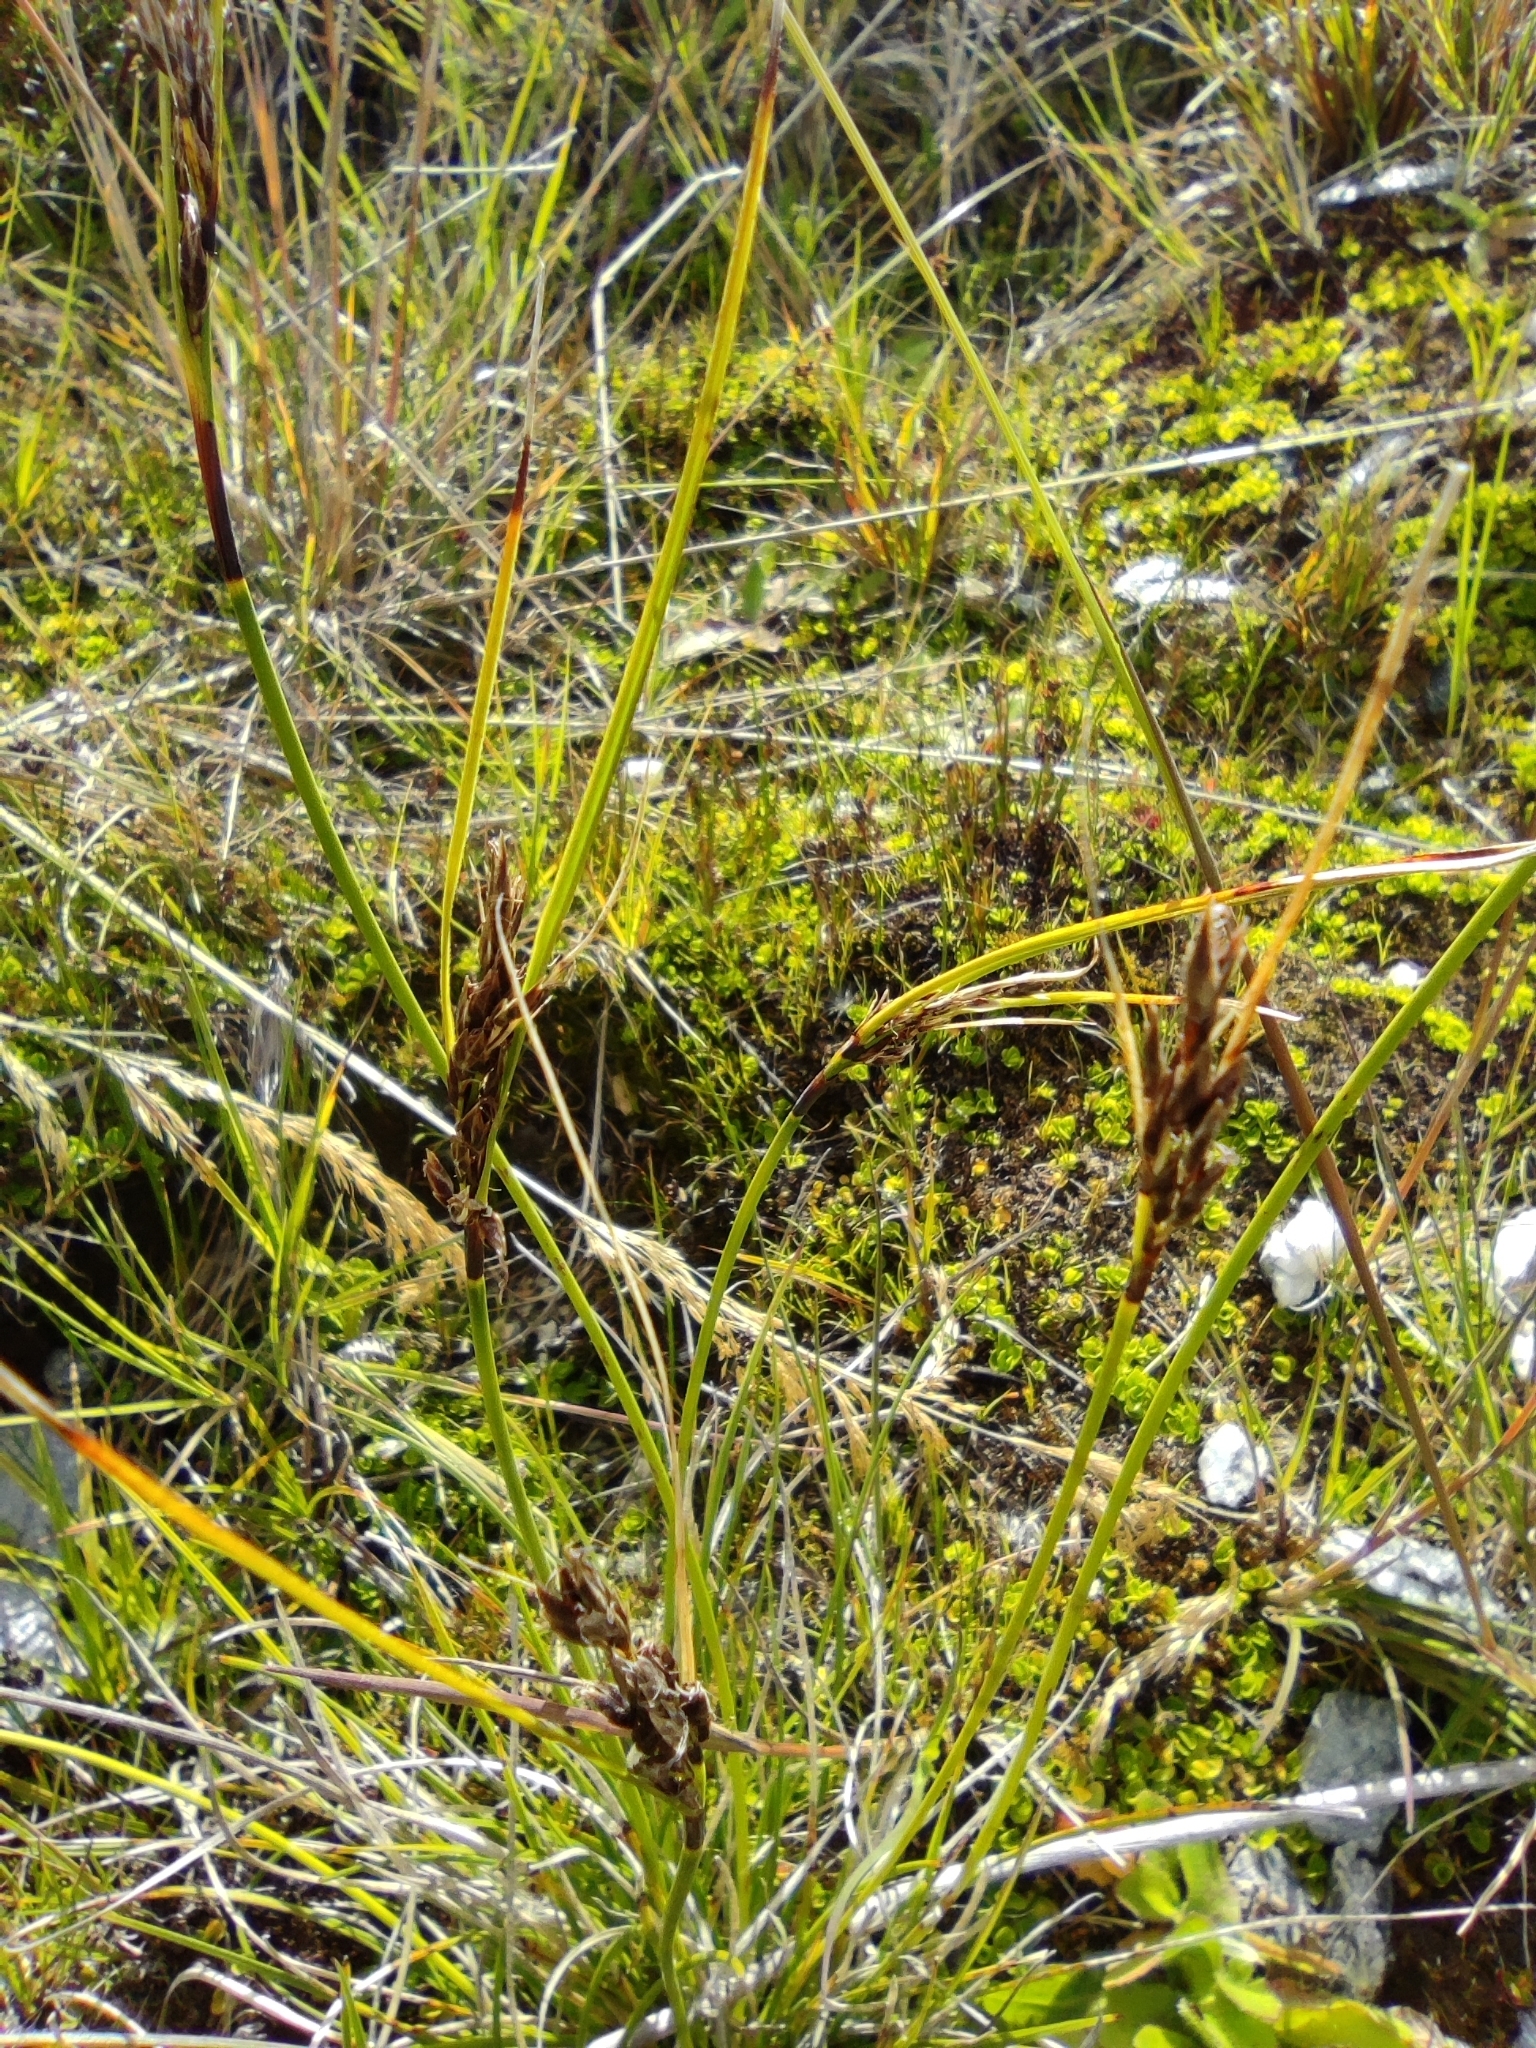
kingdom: Plantae
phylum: Tracheophyta
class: Liliopsida
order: Poales
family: Cyperaceae
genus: Schoenus
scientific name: Schoenus rhynchosporoides
